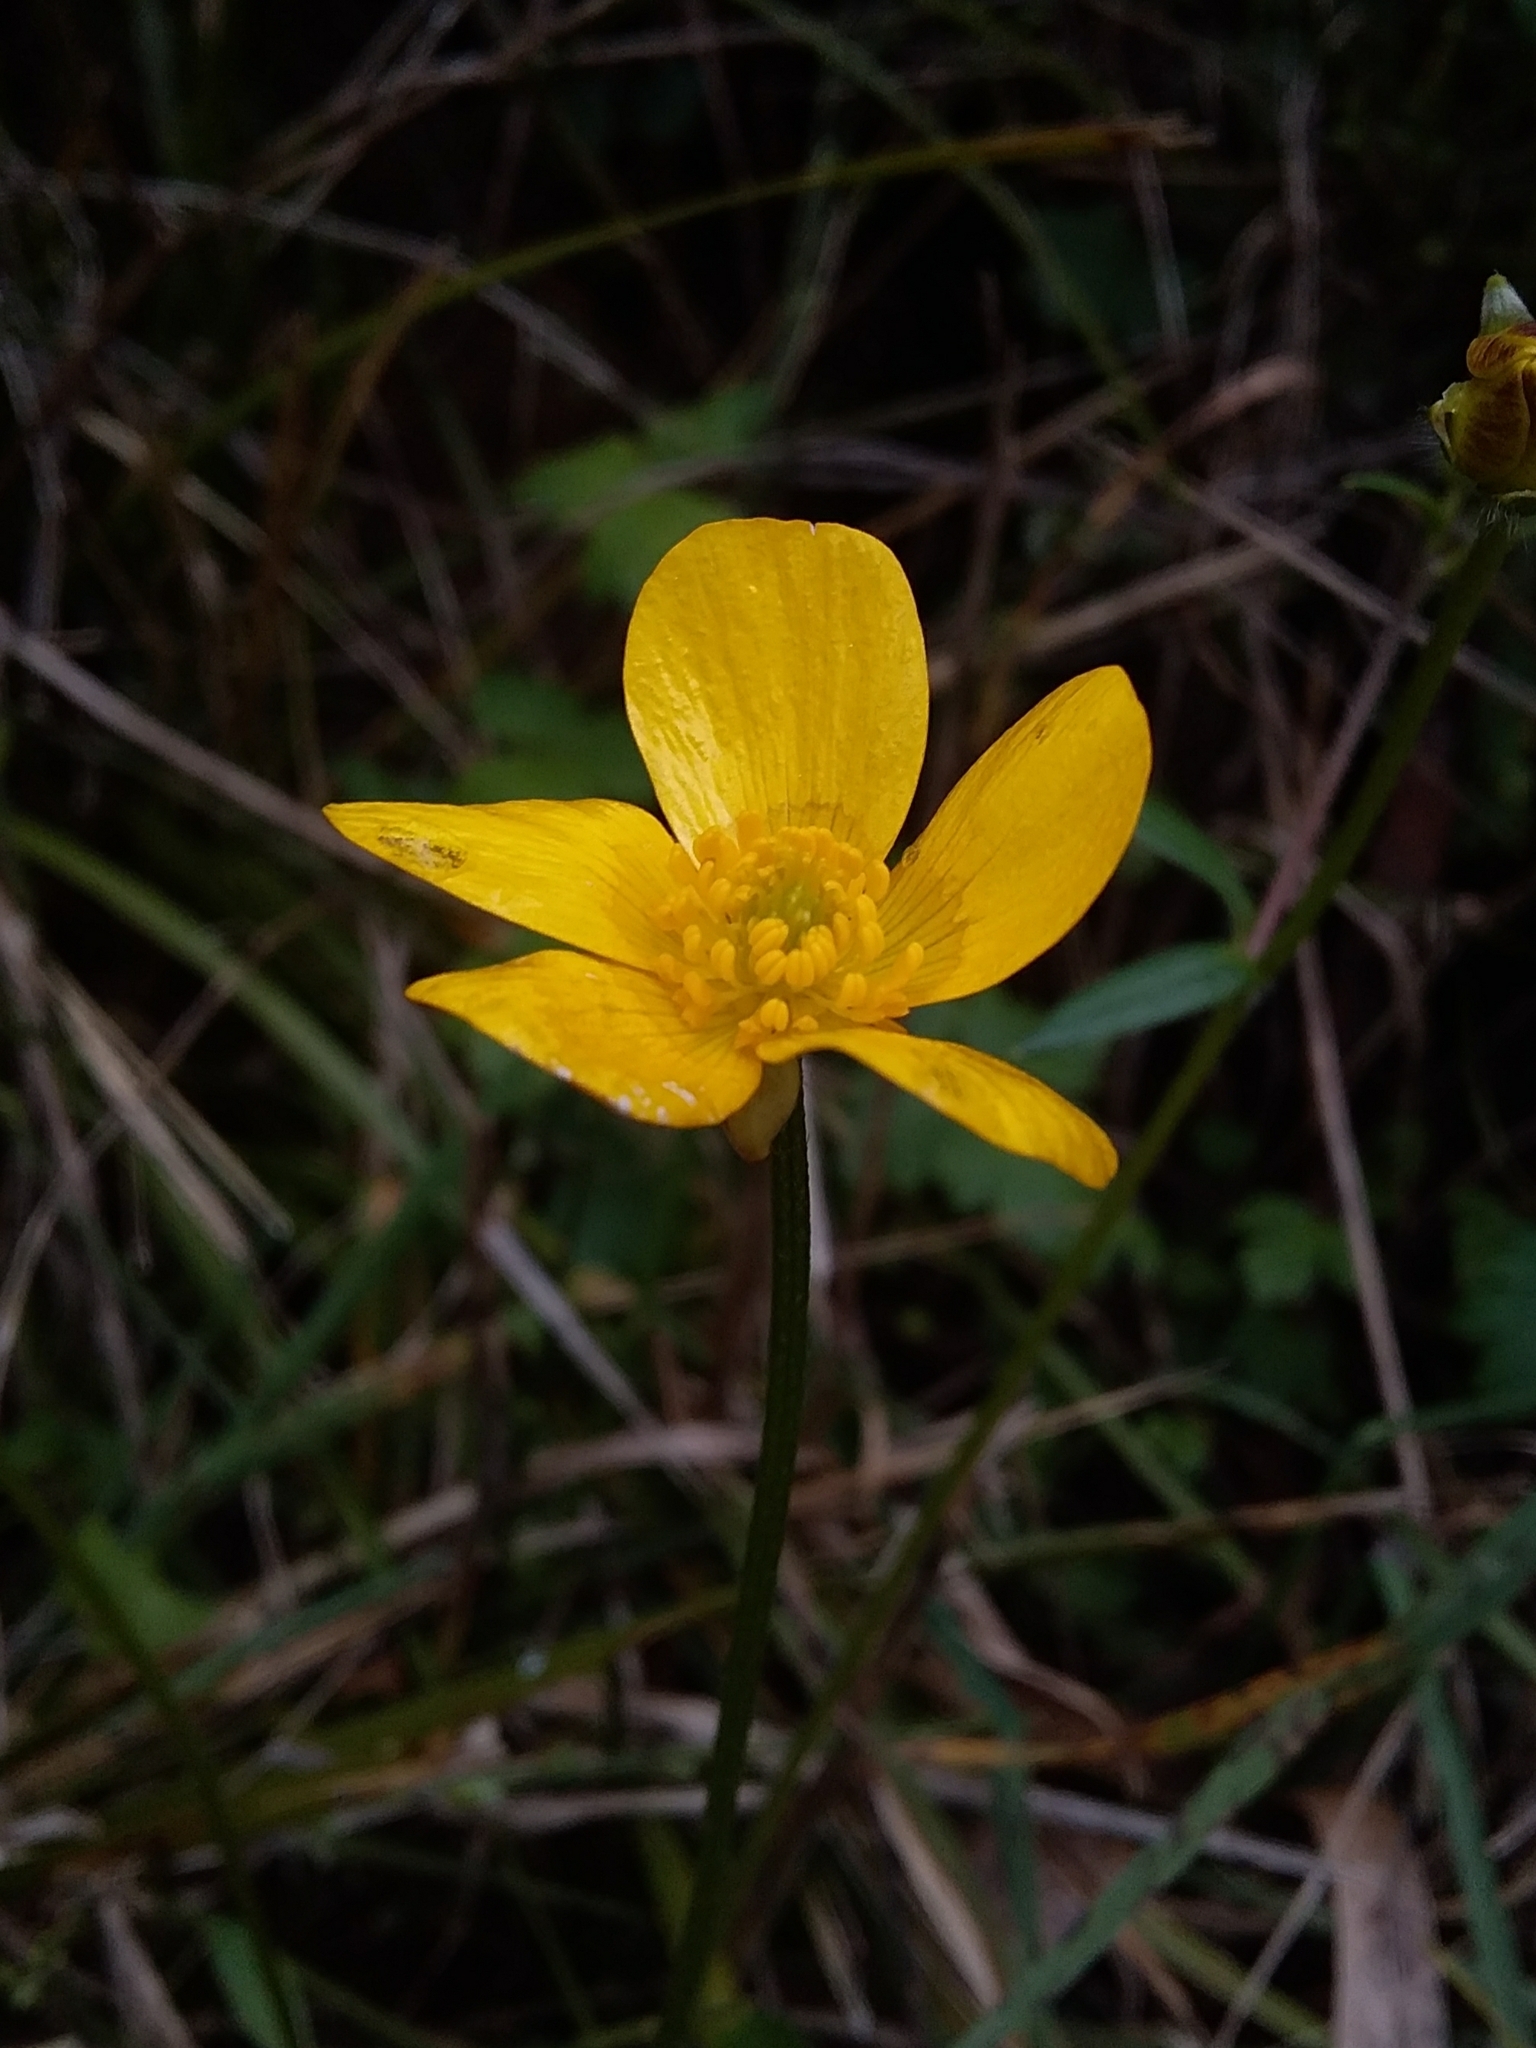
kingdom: Plantae
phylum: Tracheophyta
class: Magnoliopsida
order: Ranunculales
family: Ranunculaceae
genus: Ranunculus
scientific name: Ranunculus lappaceus
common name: Australian buttercup
